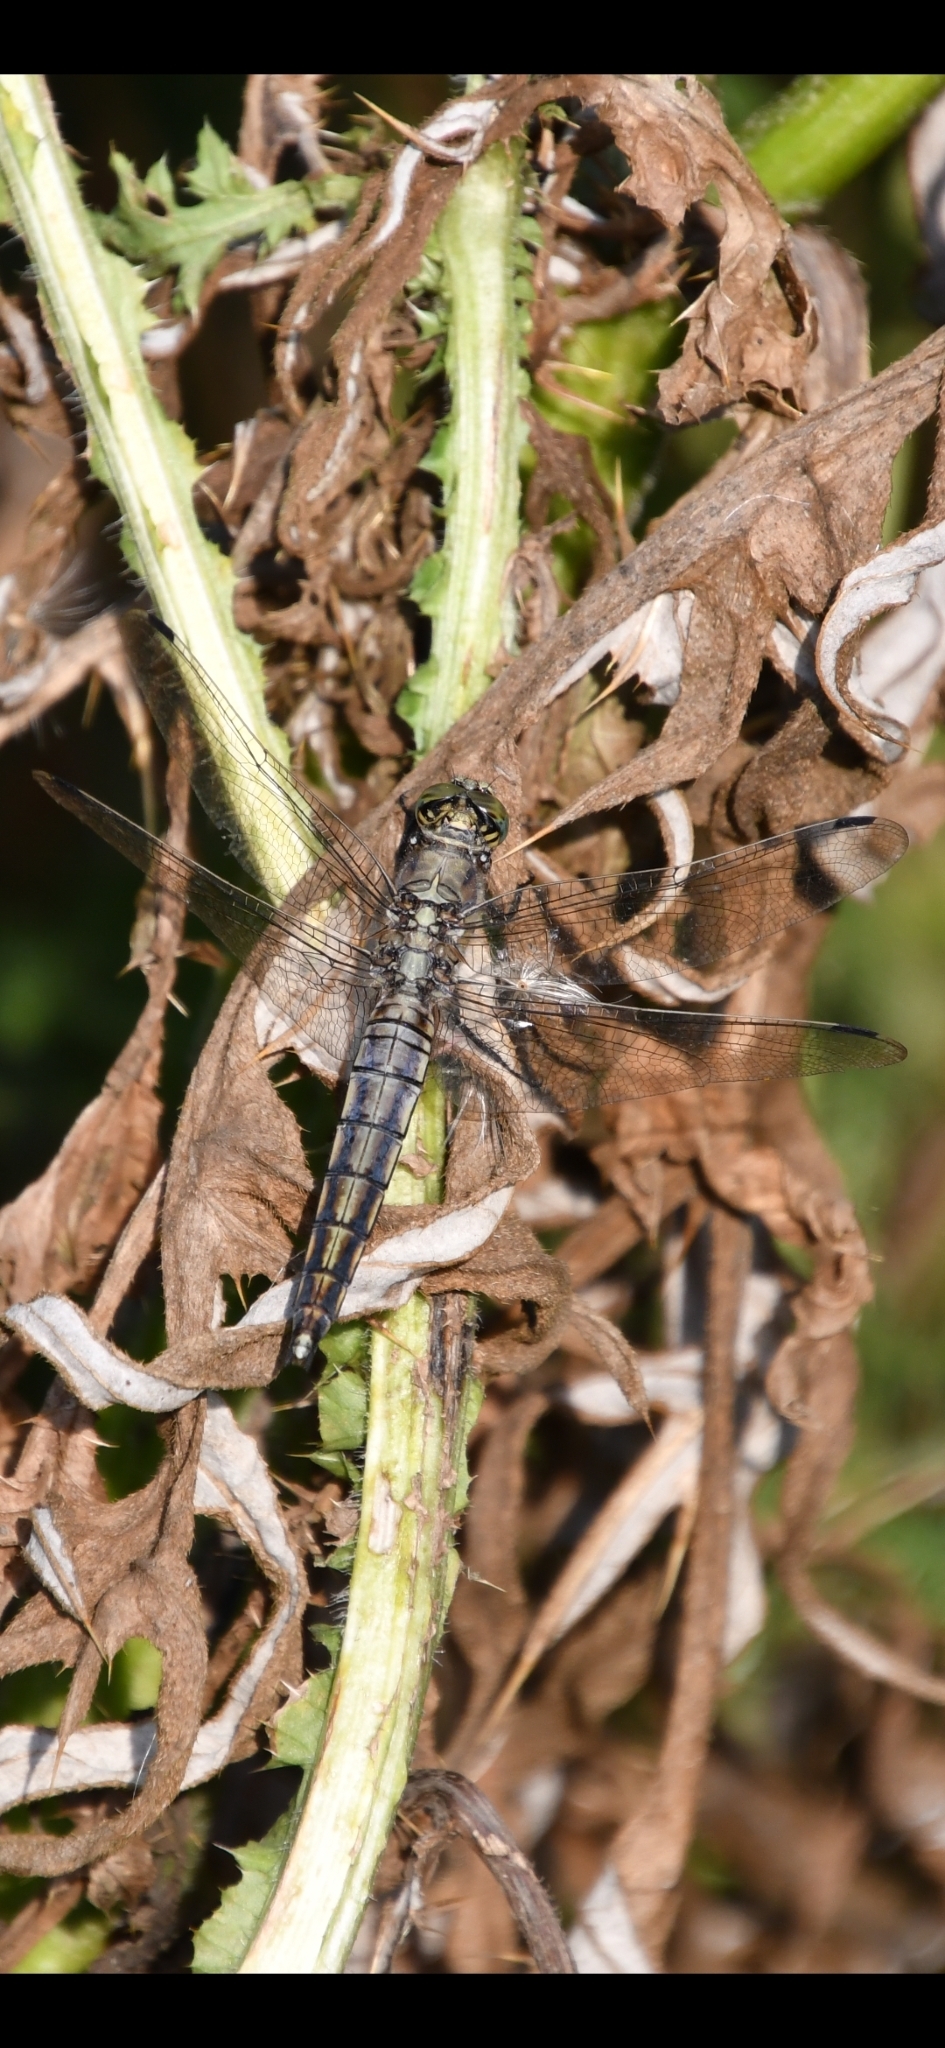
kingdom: Animalia
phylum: Arthropoda
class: Insecta
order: Odonata
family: Libellulidae
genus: Orthetrum
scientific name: Orthetrum cancellatum
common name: Black-tailed skimmer
